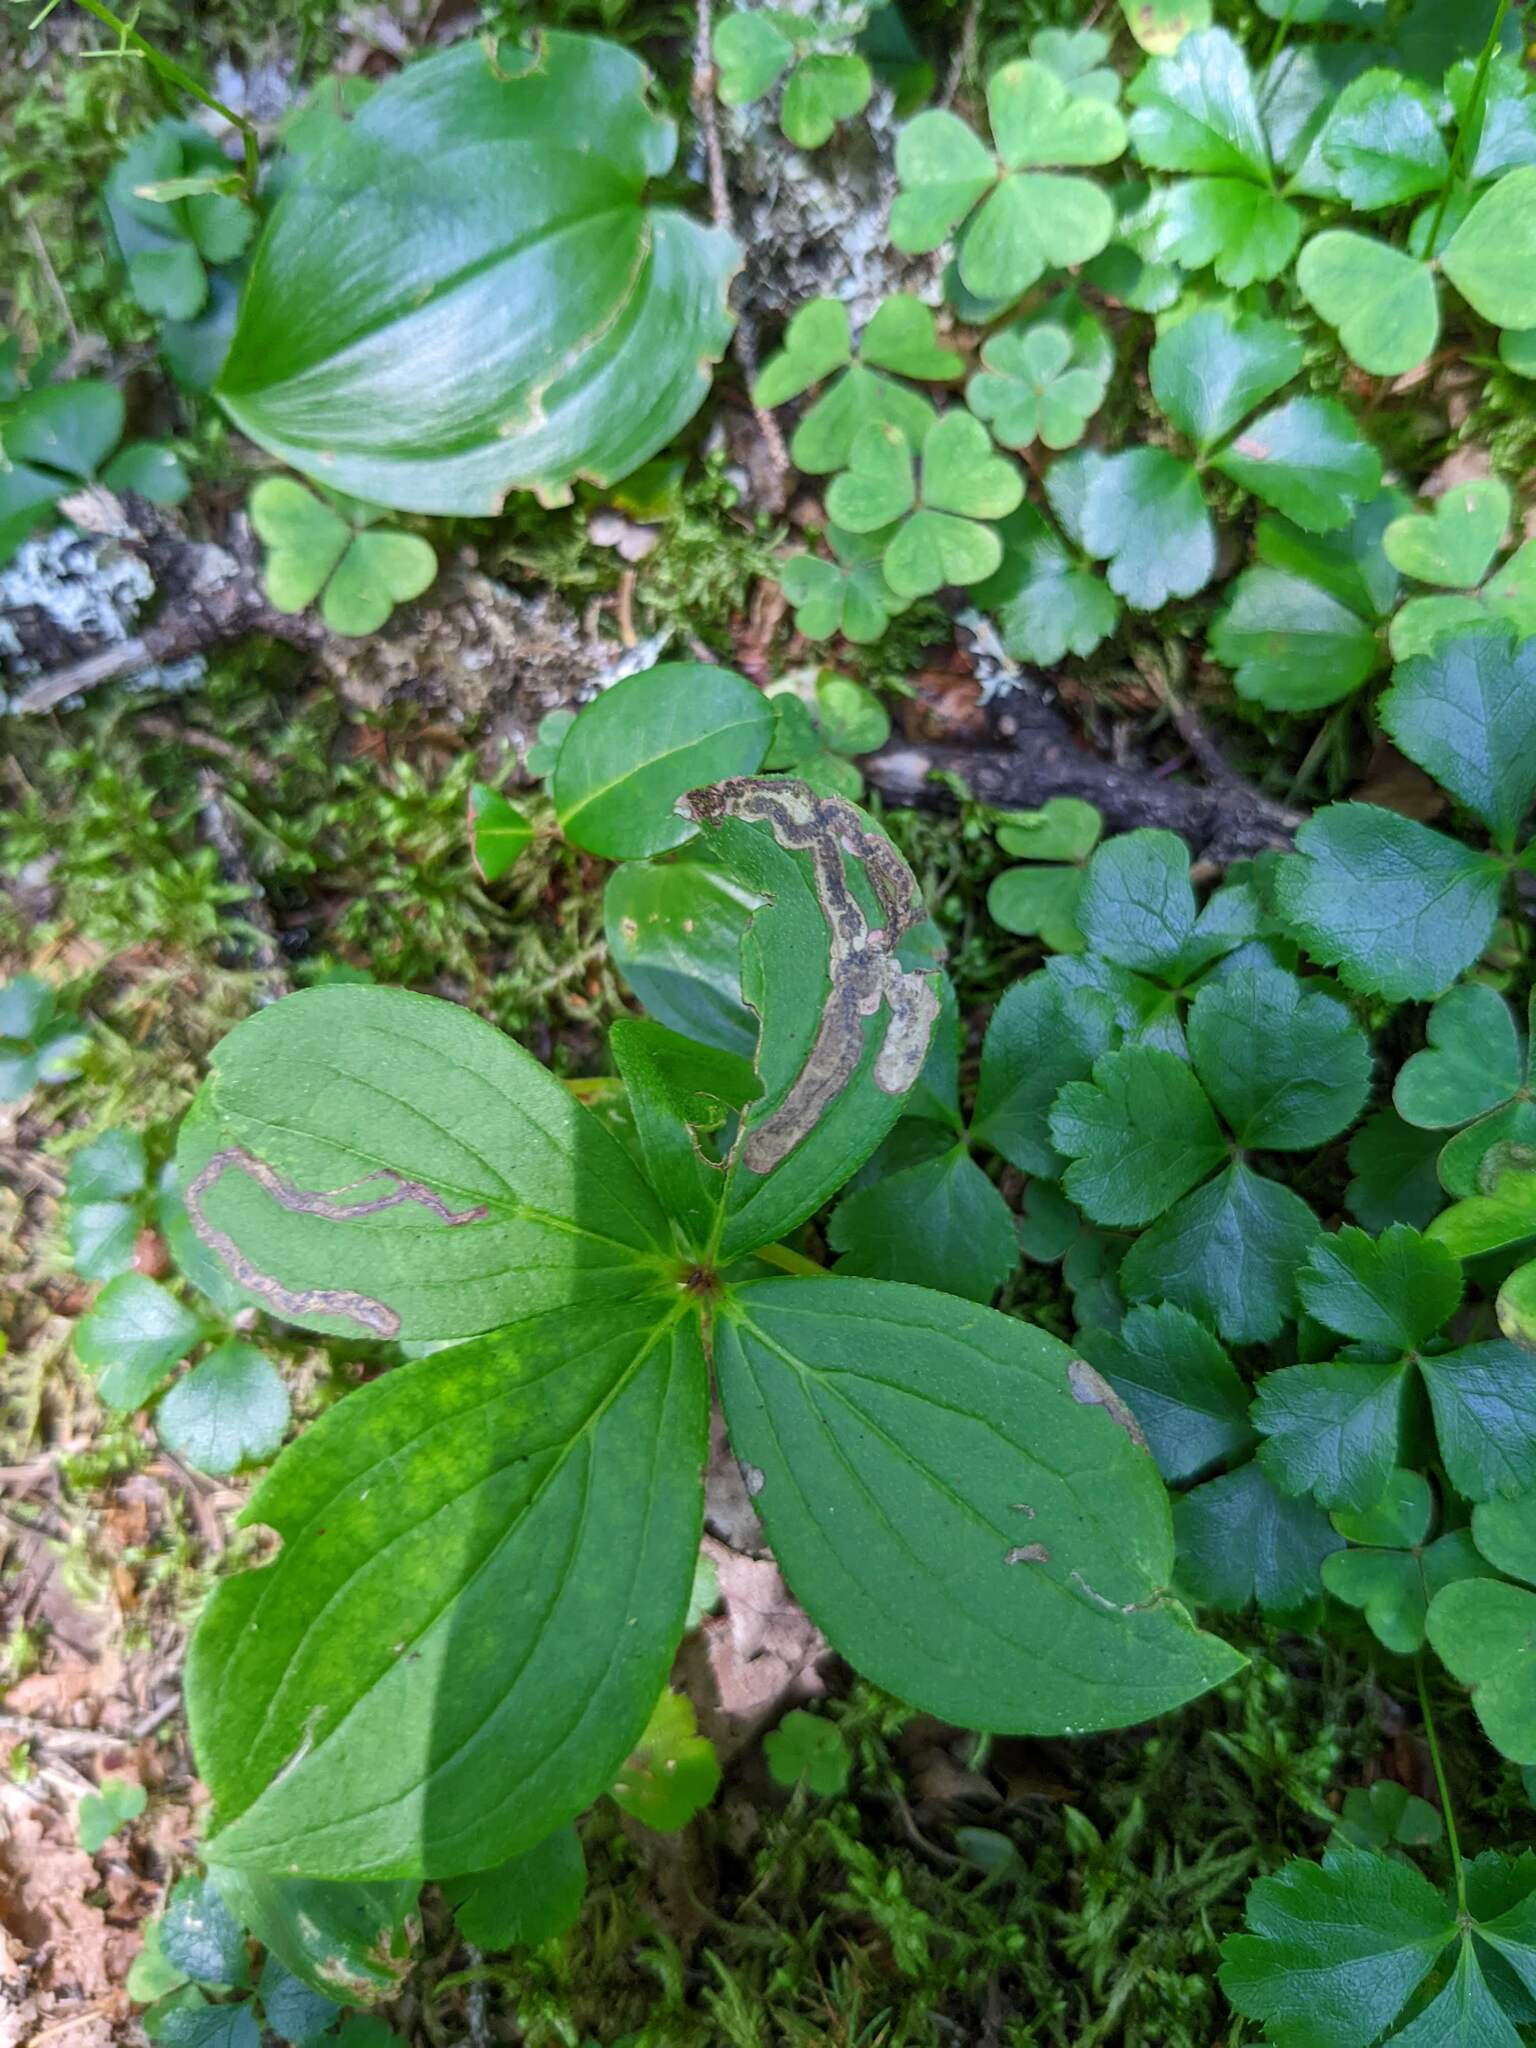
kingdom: Plantae
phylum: Tracheophyta
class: Magnoliopsida
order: Cornales
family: Cornaceae
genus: Cornus
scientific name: Cornus canadensis
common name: Creeping dogwood
